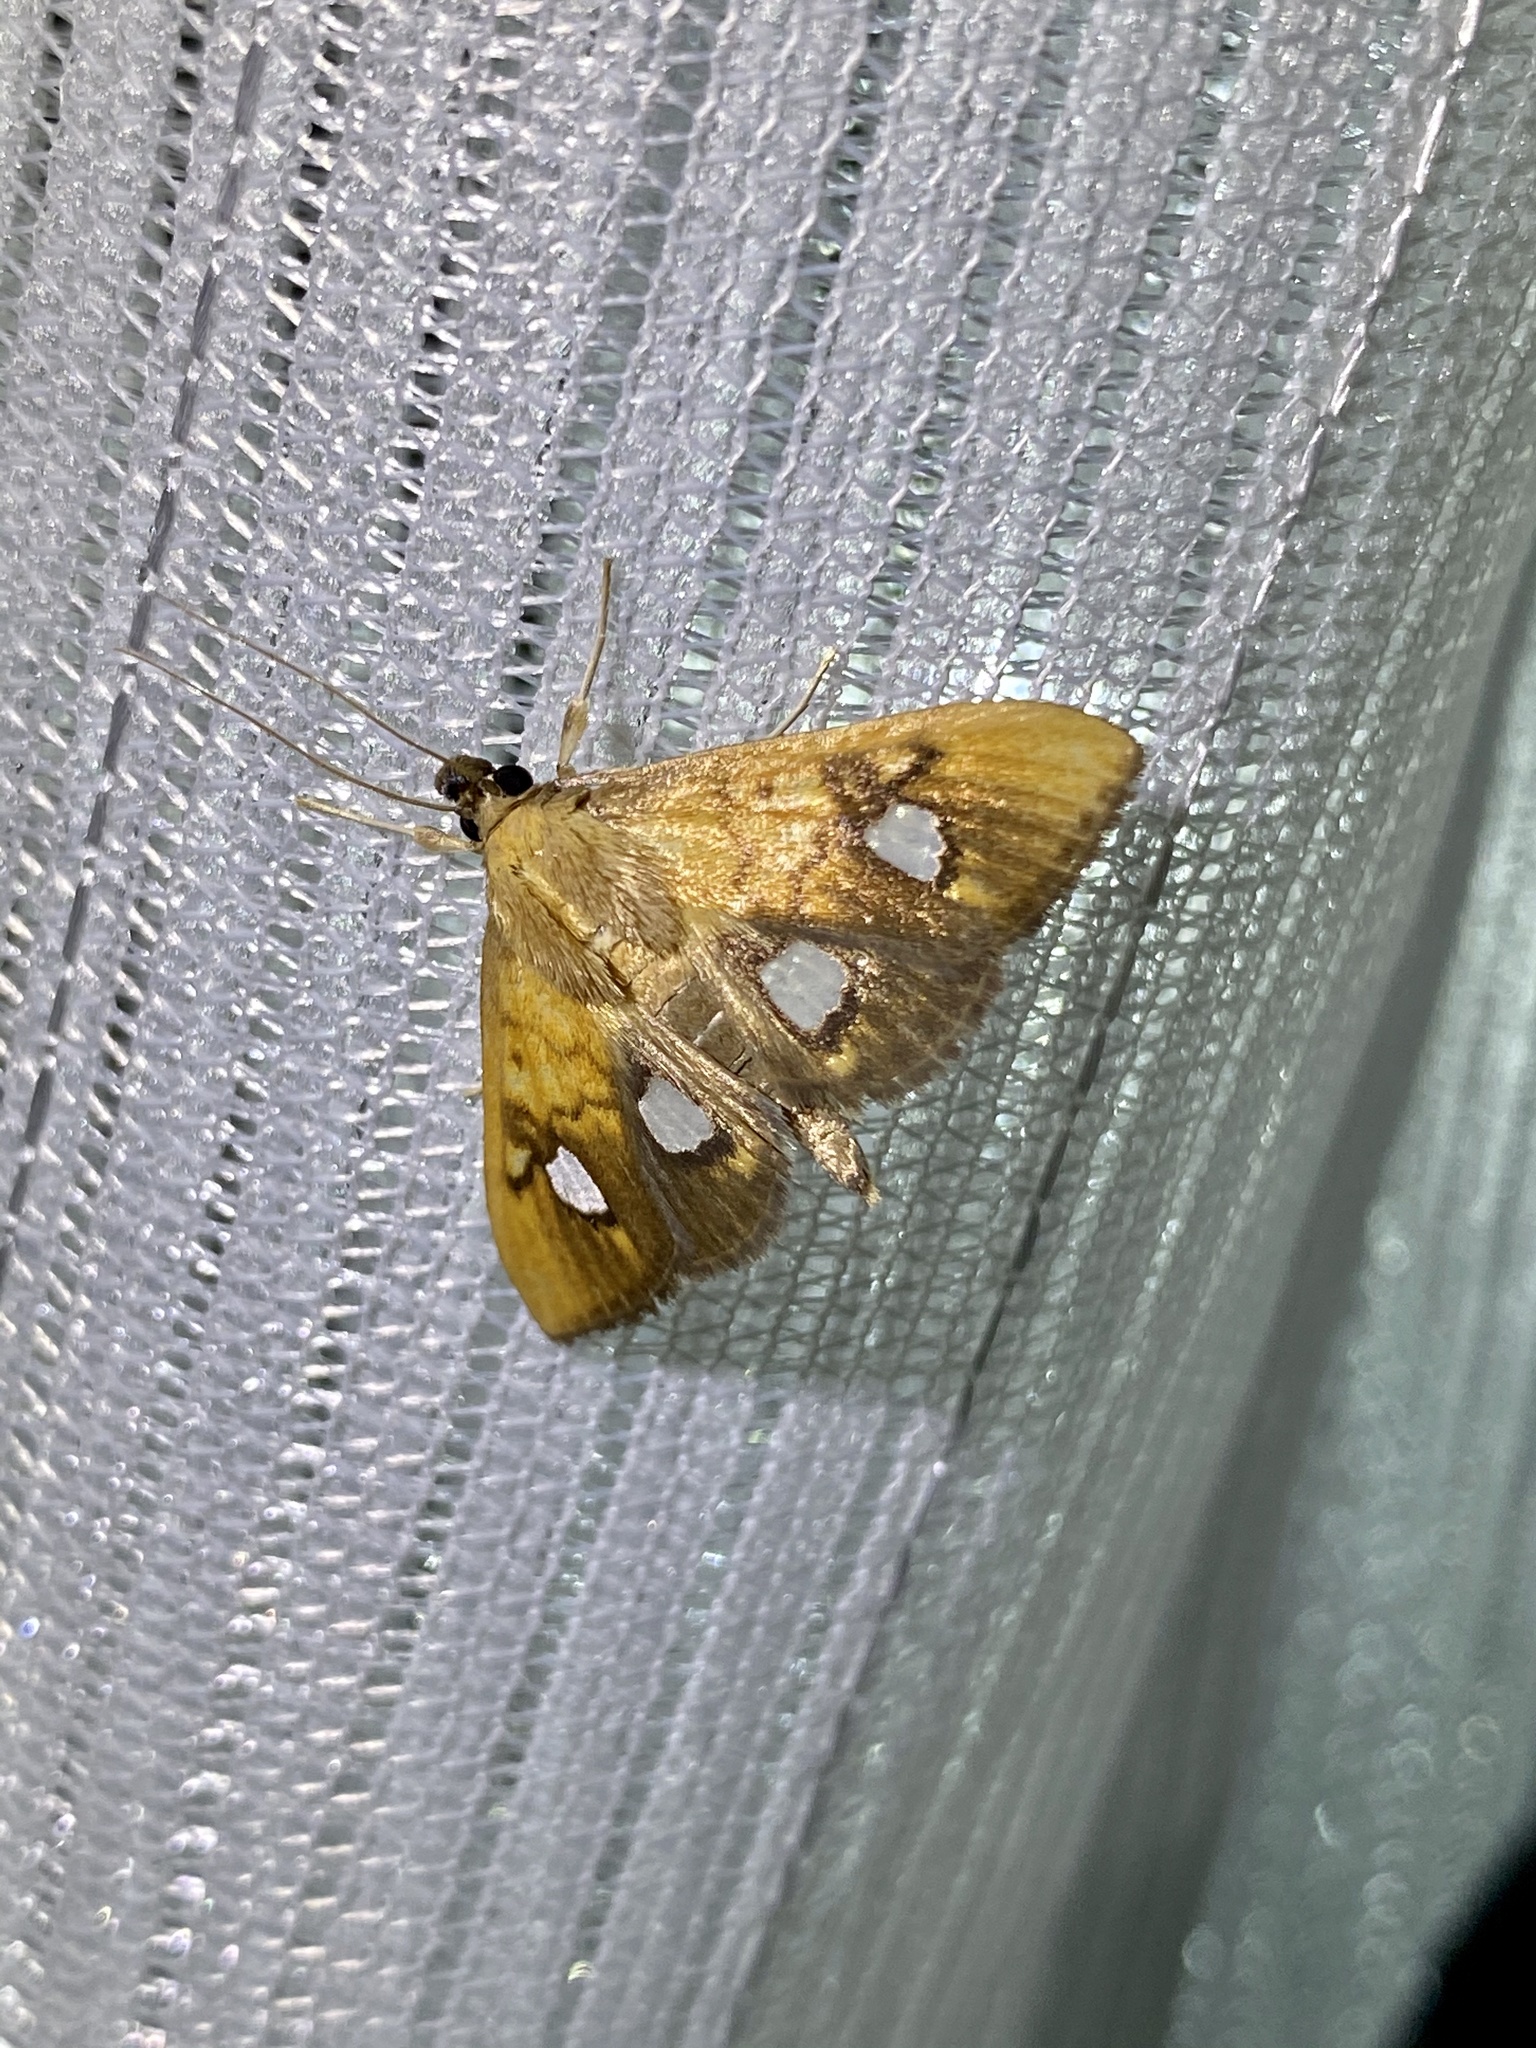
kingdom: Animalia
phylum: Arthropoda
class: Insecta
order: Lepidoptera
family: Crambidae
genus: Nosophora
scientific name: Nosophora semitritalis
